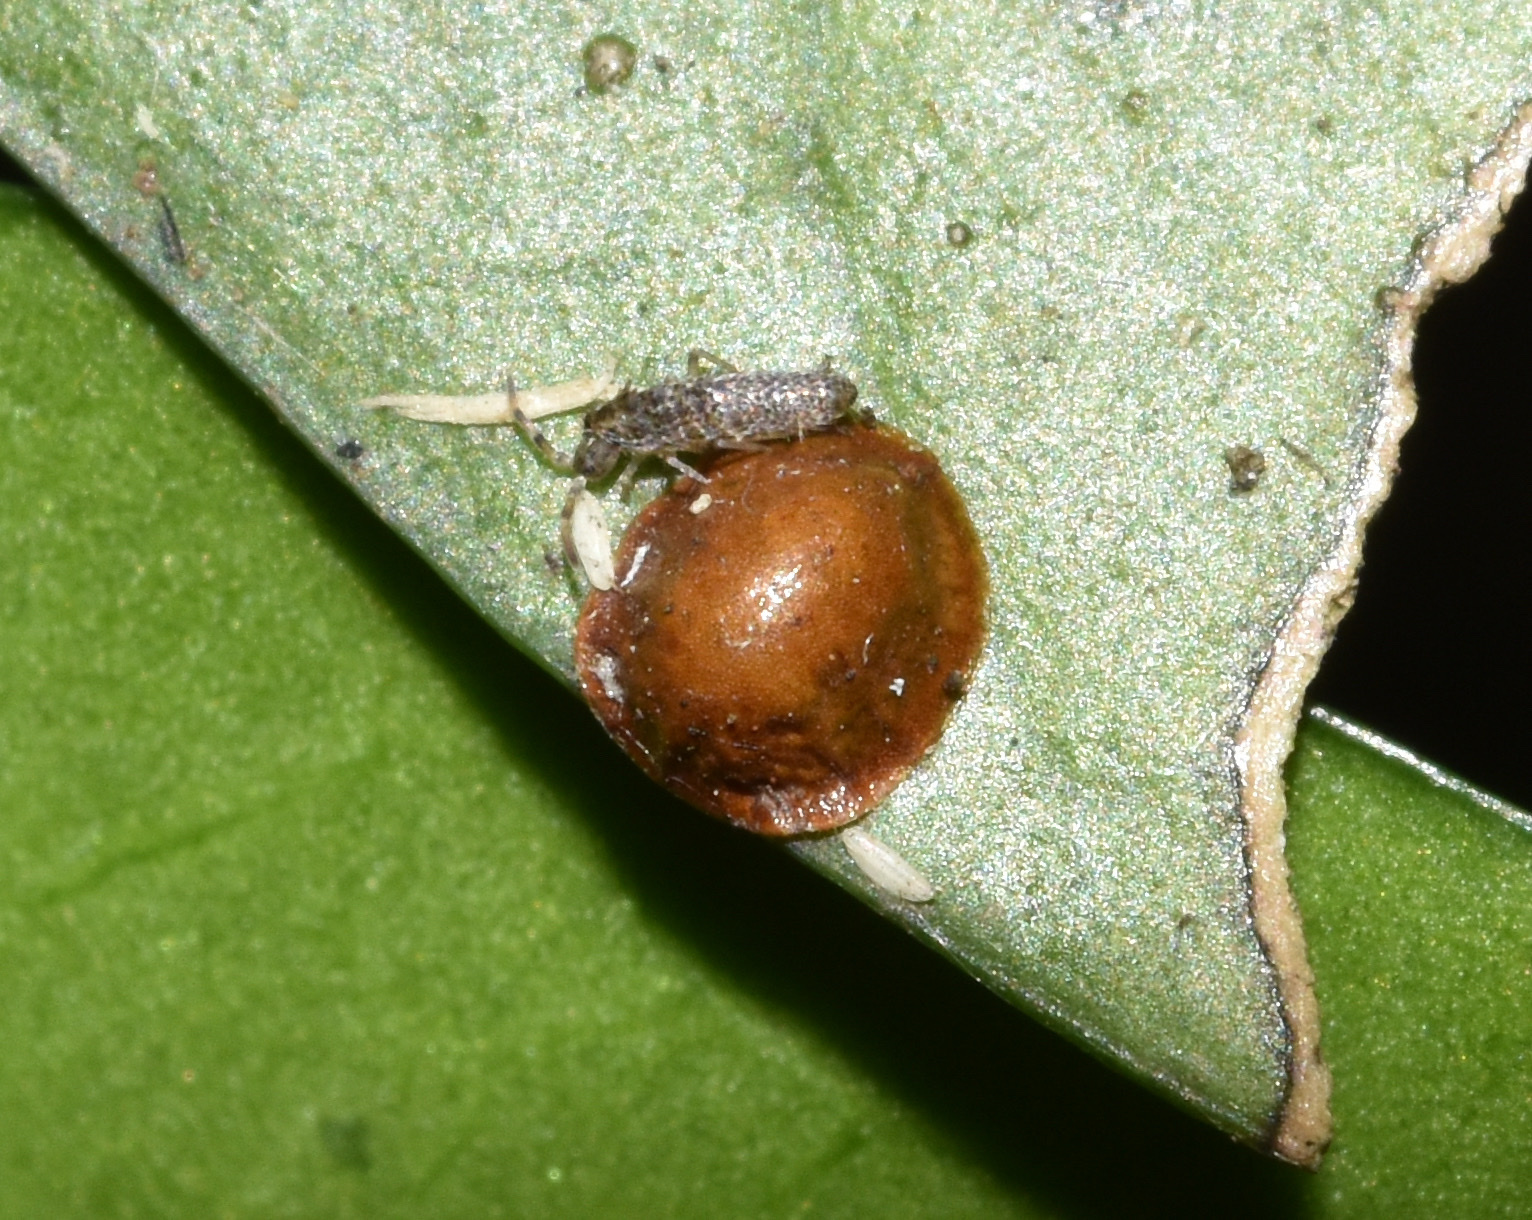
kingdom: Animalia
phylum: Arthropoda
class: Insecta
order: Hemiptera
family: Coccidae
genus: Saissetia
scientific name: Saissetia coffeae
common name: Hemispherical scale
